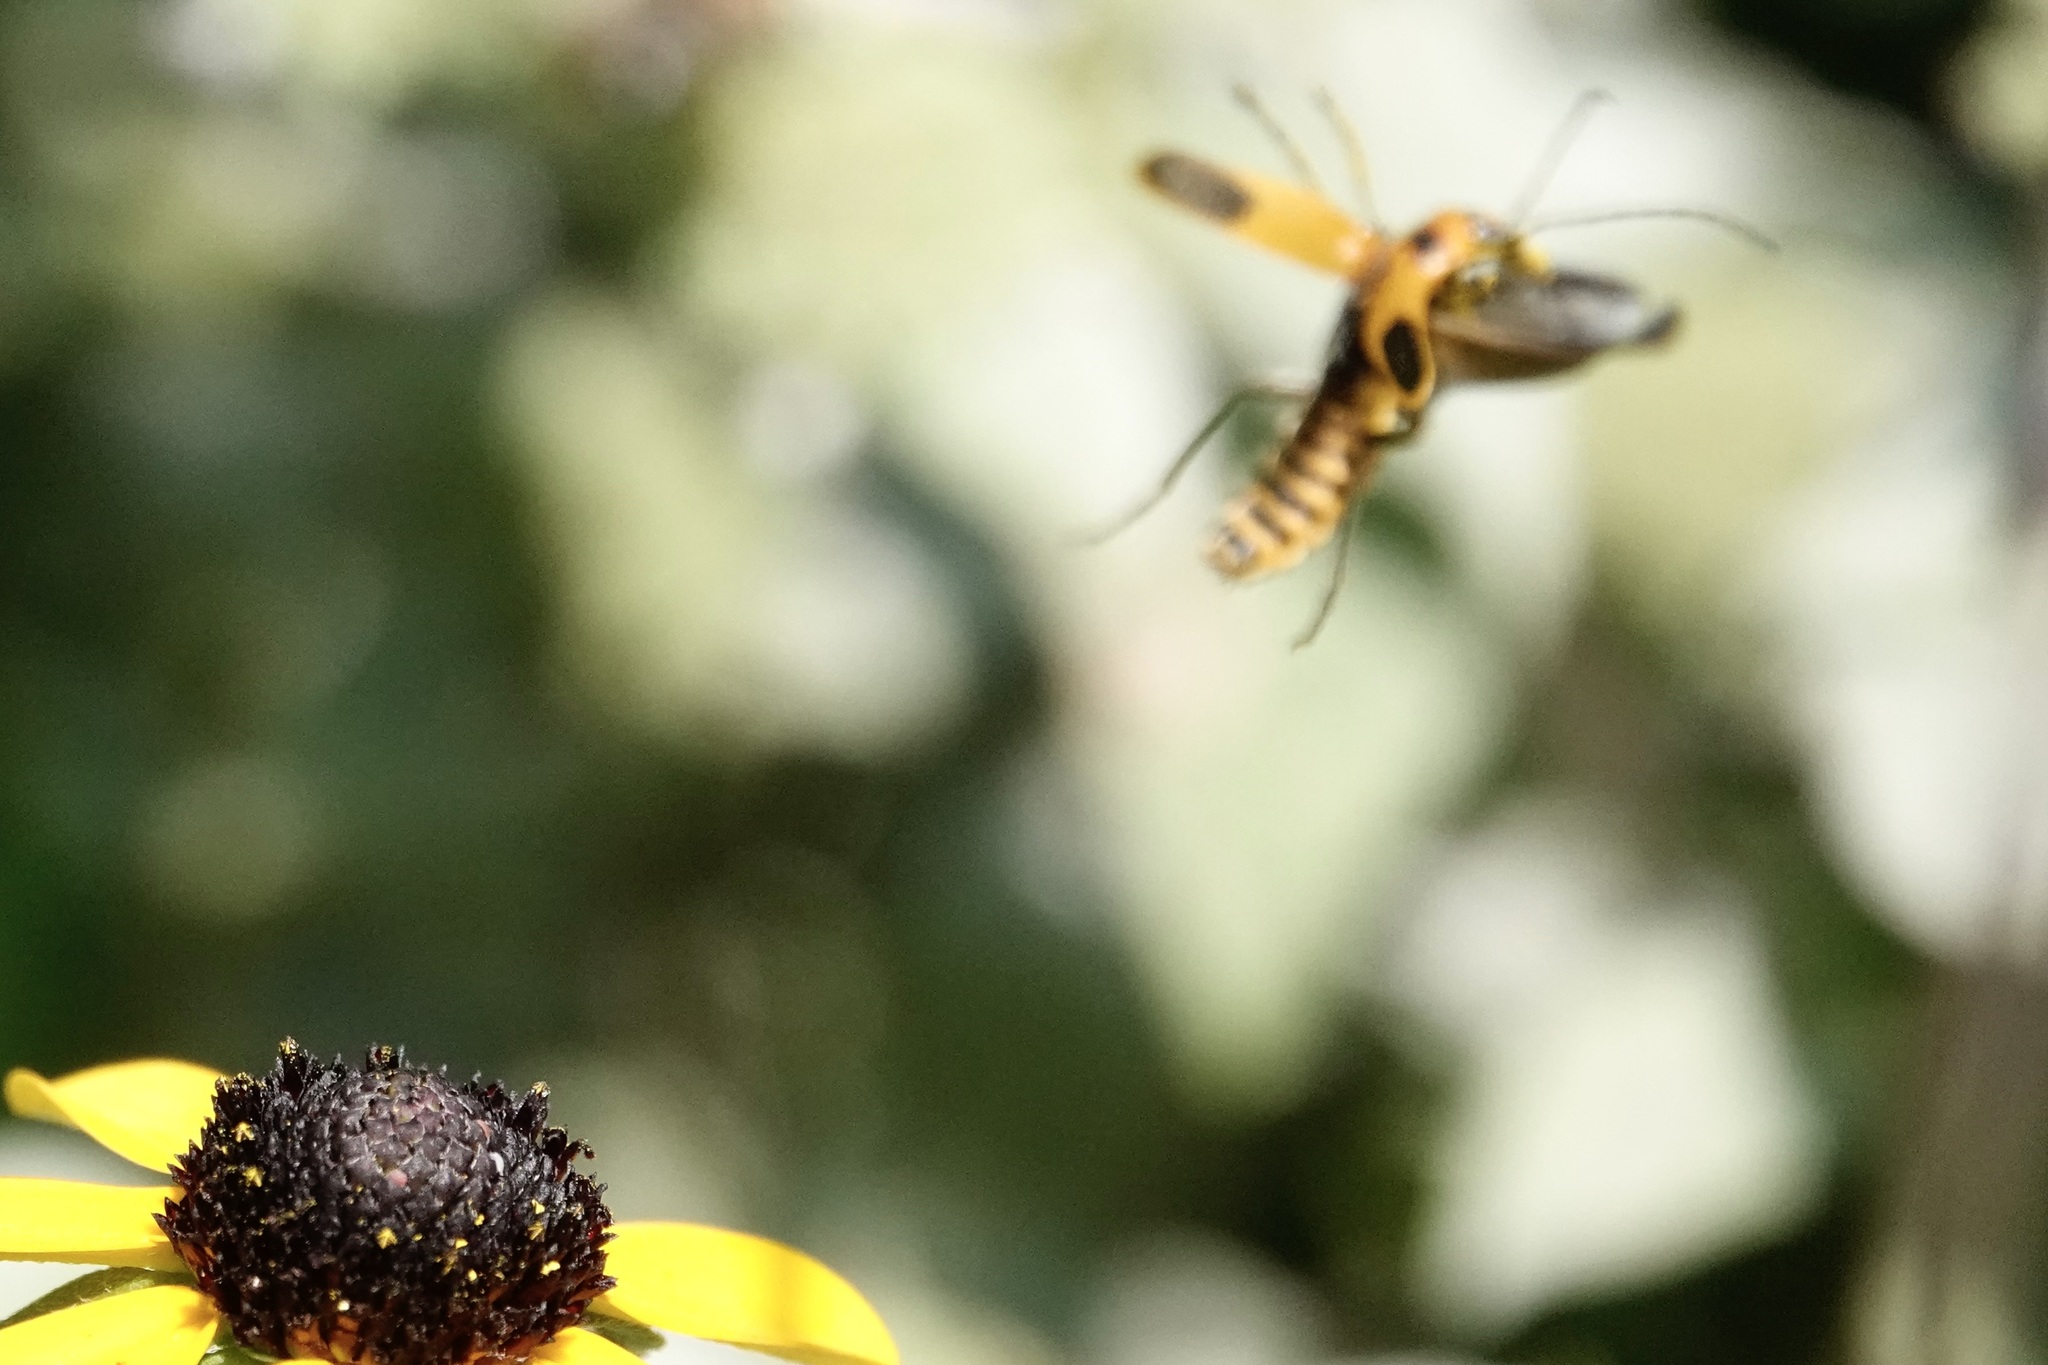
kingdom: Animalia
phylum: Arthropoda
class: Insecta
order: Coleoptera
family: Cantharidae
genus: Chauliognathus
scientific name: Chauliognathus pensylvanicus
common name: Goldenrod soldier beetle
